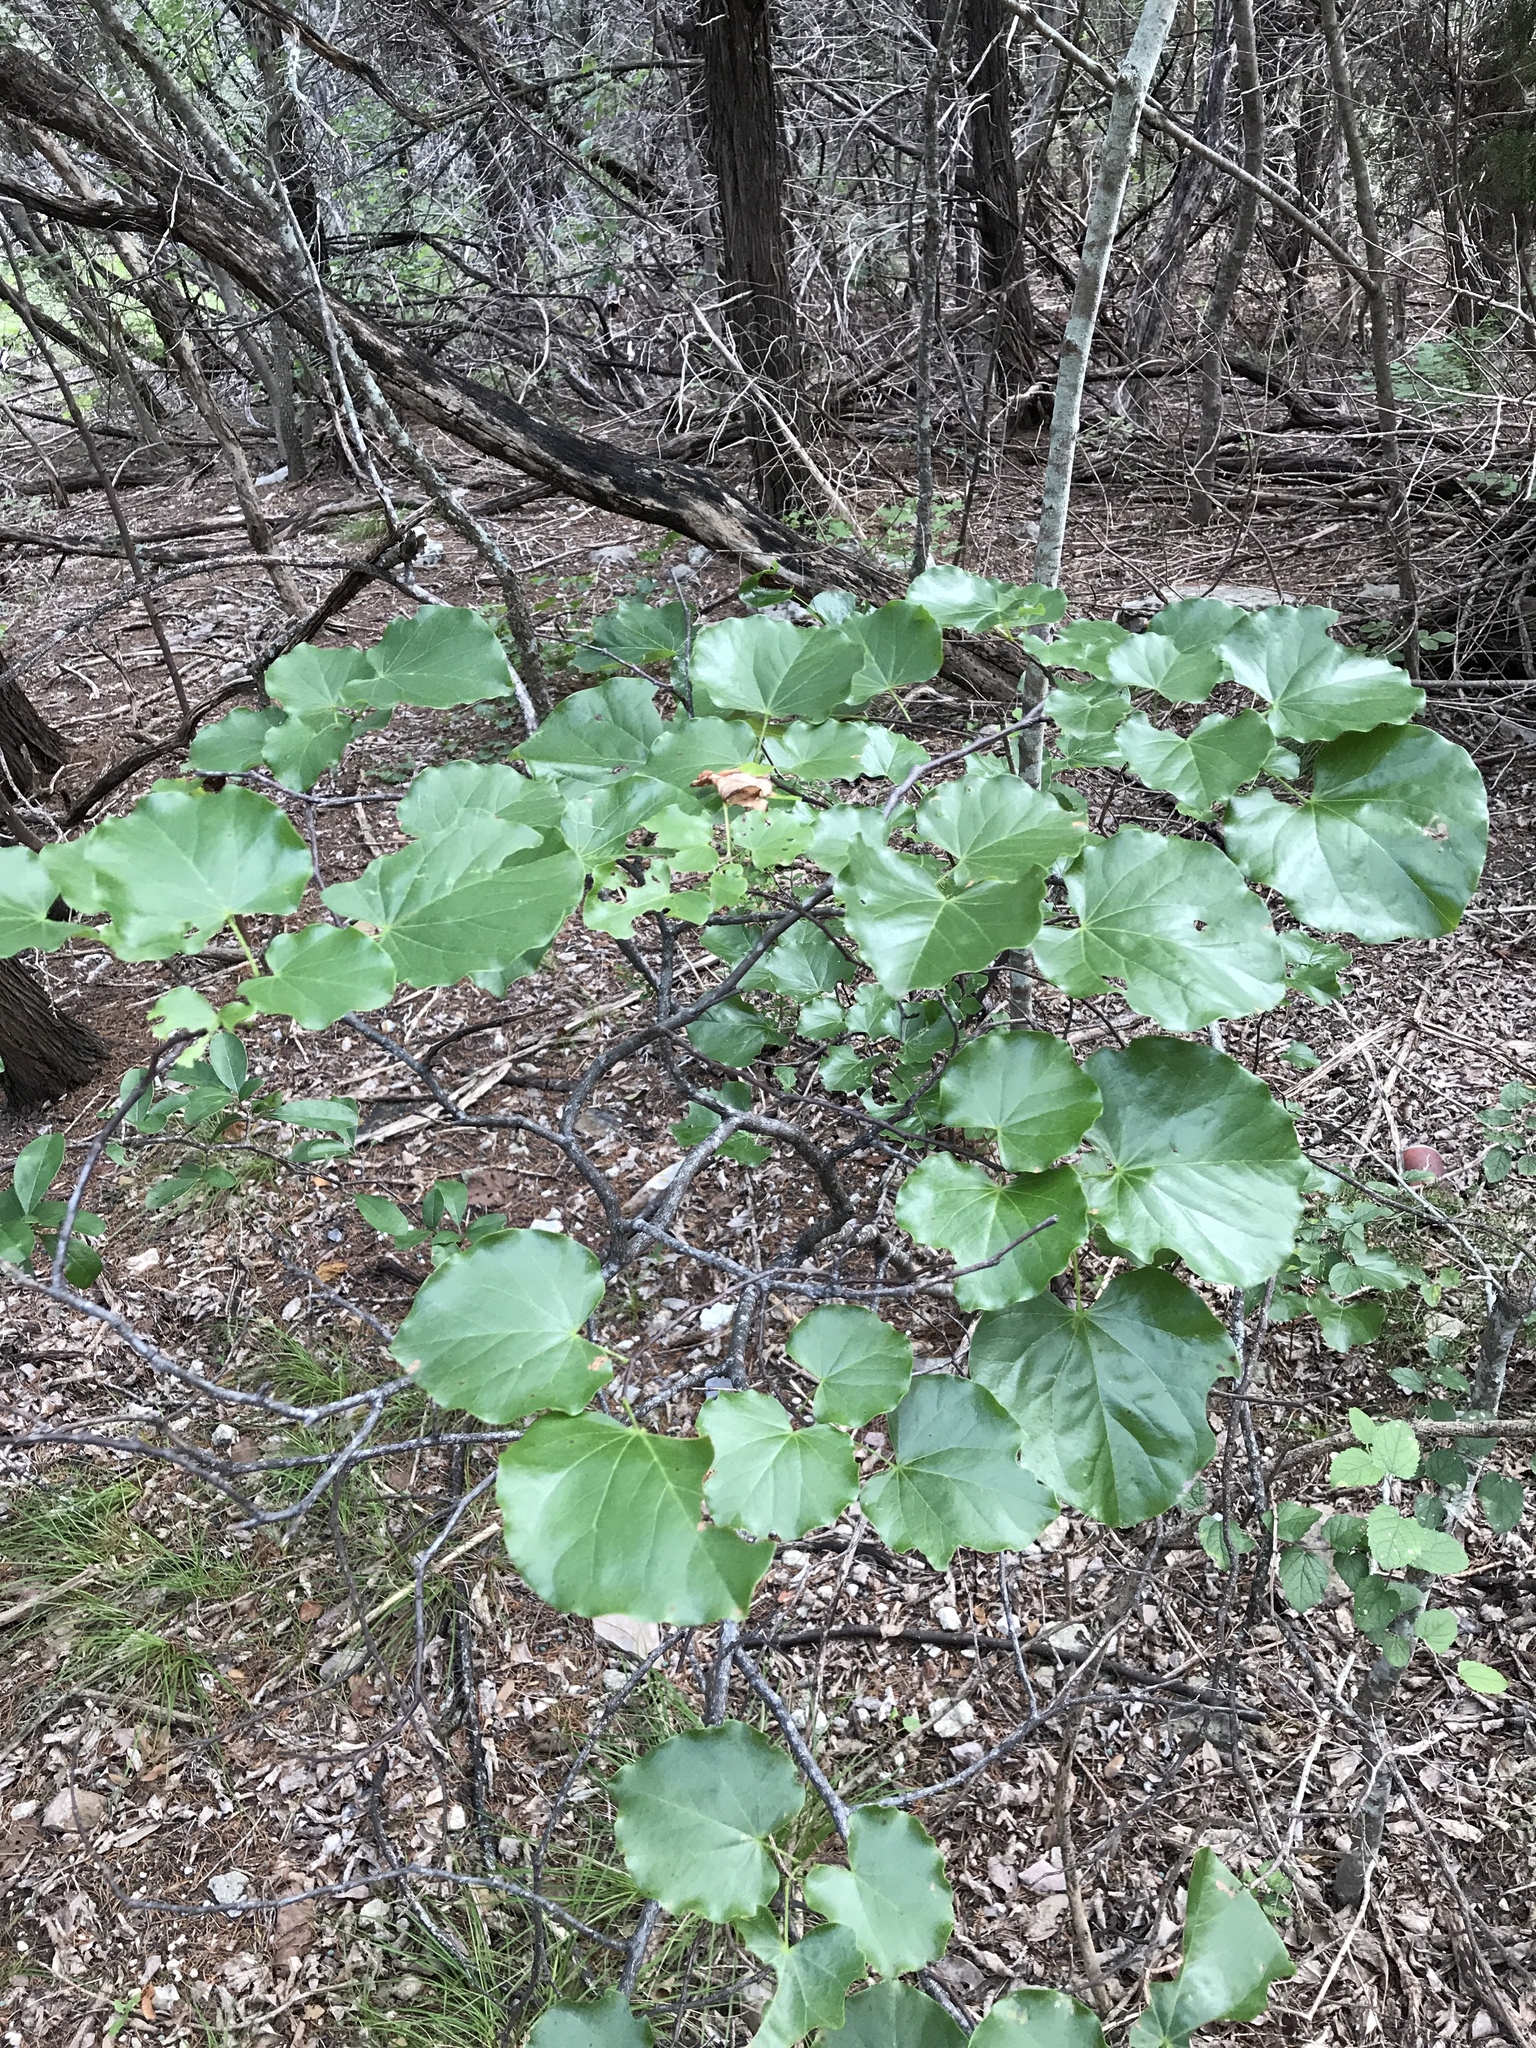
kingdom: Plantae
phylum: Tracheophyta
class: Magnoliopsida
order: Fabales
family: Fabaceae
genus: Cercis
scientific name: Cercis canadensis
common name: Eastern redbud
